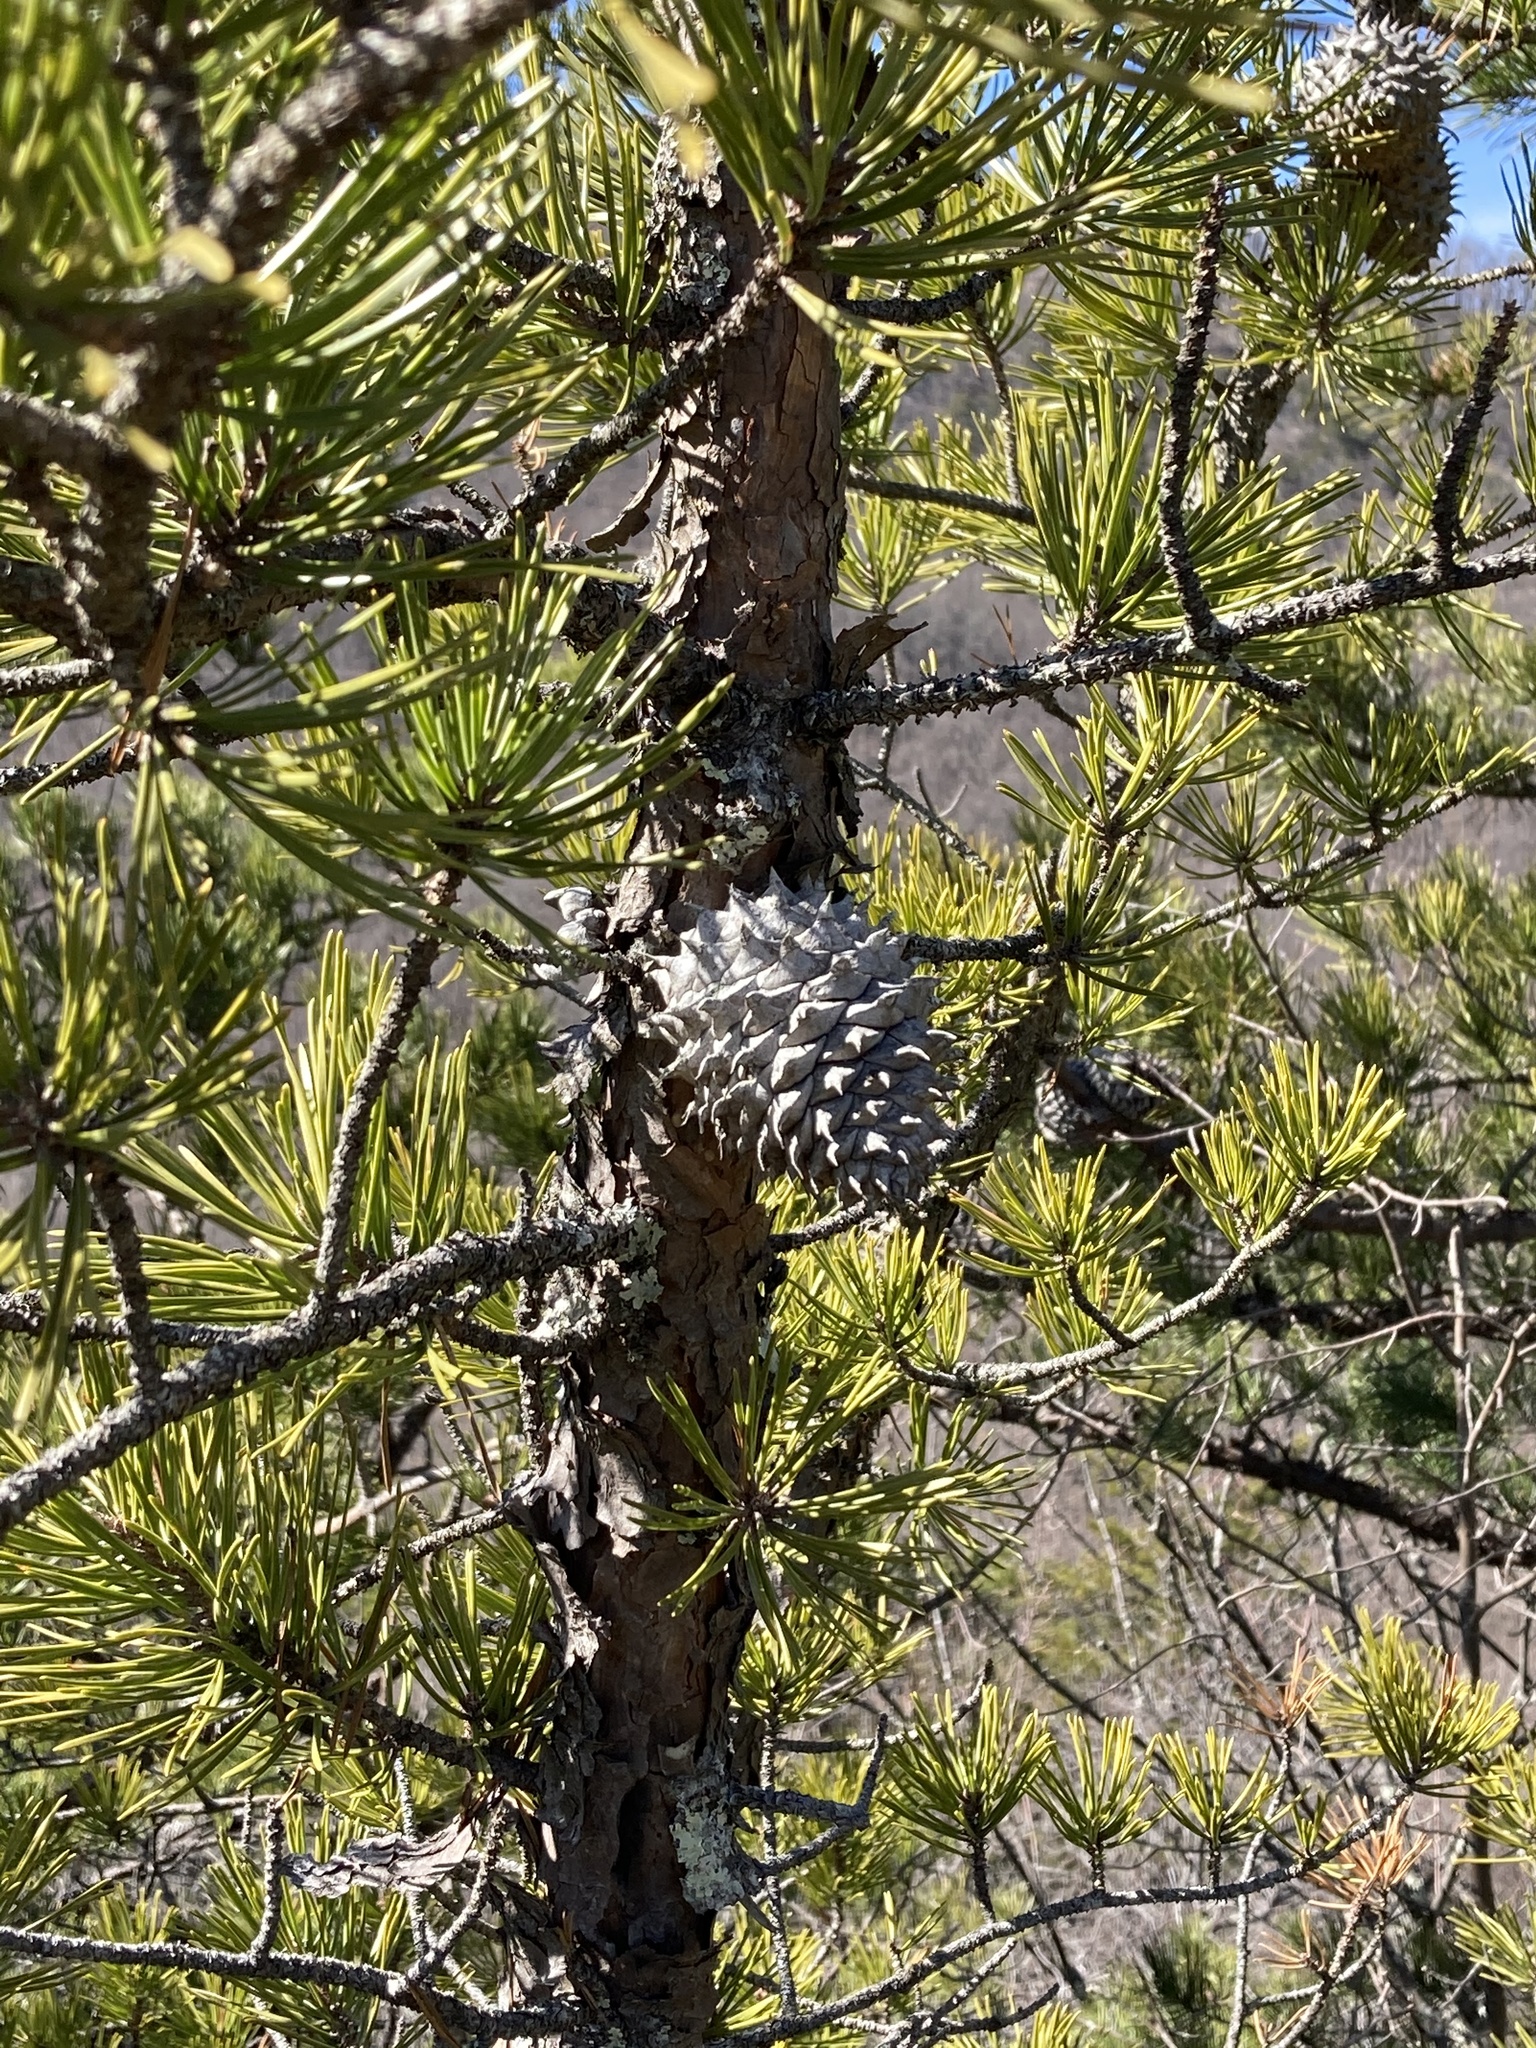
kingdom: Plantae
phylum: Tracheophyta
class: Pinopsida
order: Pinales
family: Pinaceae
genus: Pinus
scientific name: Pinus pungens
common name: Hickory pine
